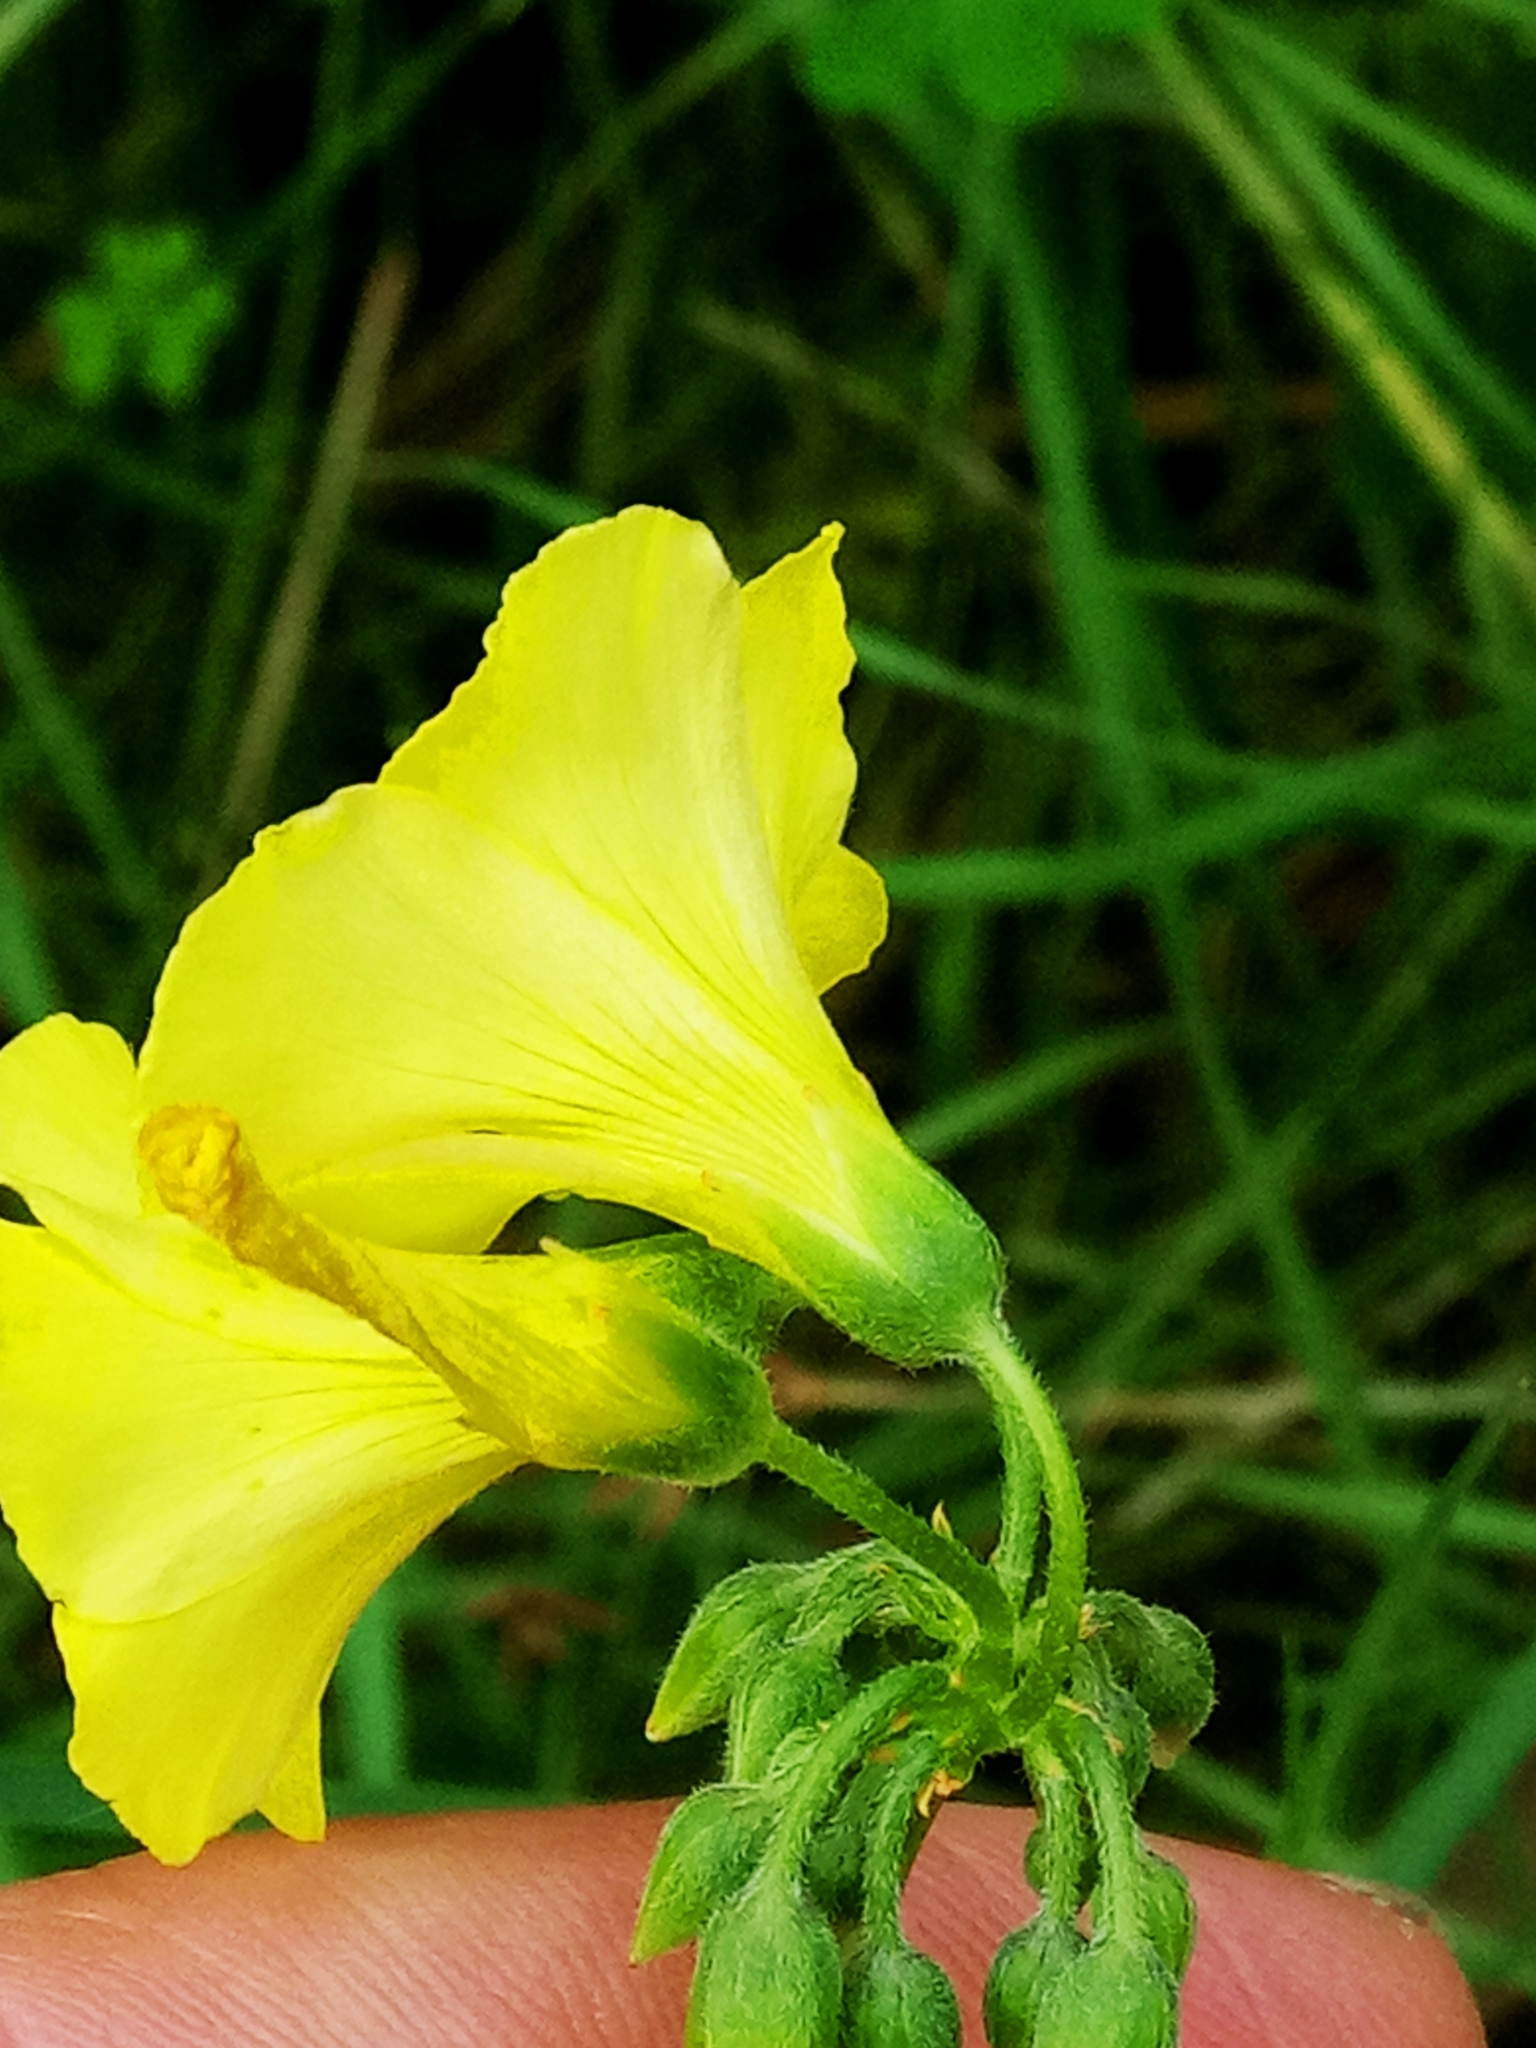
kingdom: Plantae
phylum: Tracheophyta
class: Magnoliopsida
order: Oxalidales
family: Oxalidaceae
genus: Oxalis
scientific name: Oxalis pes-caprae
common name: Bermuda-buttercup
